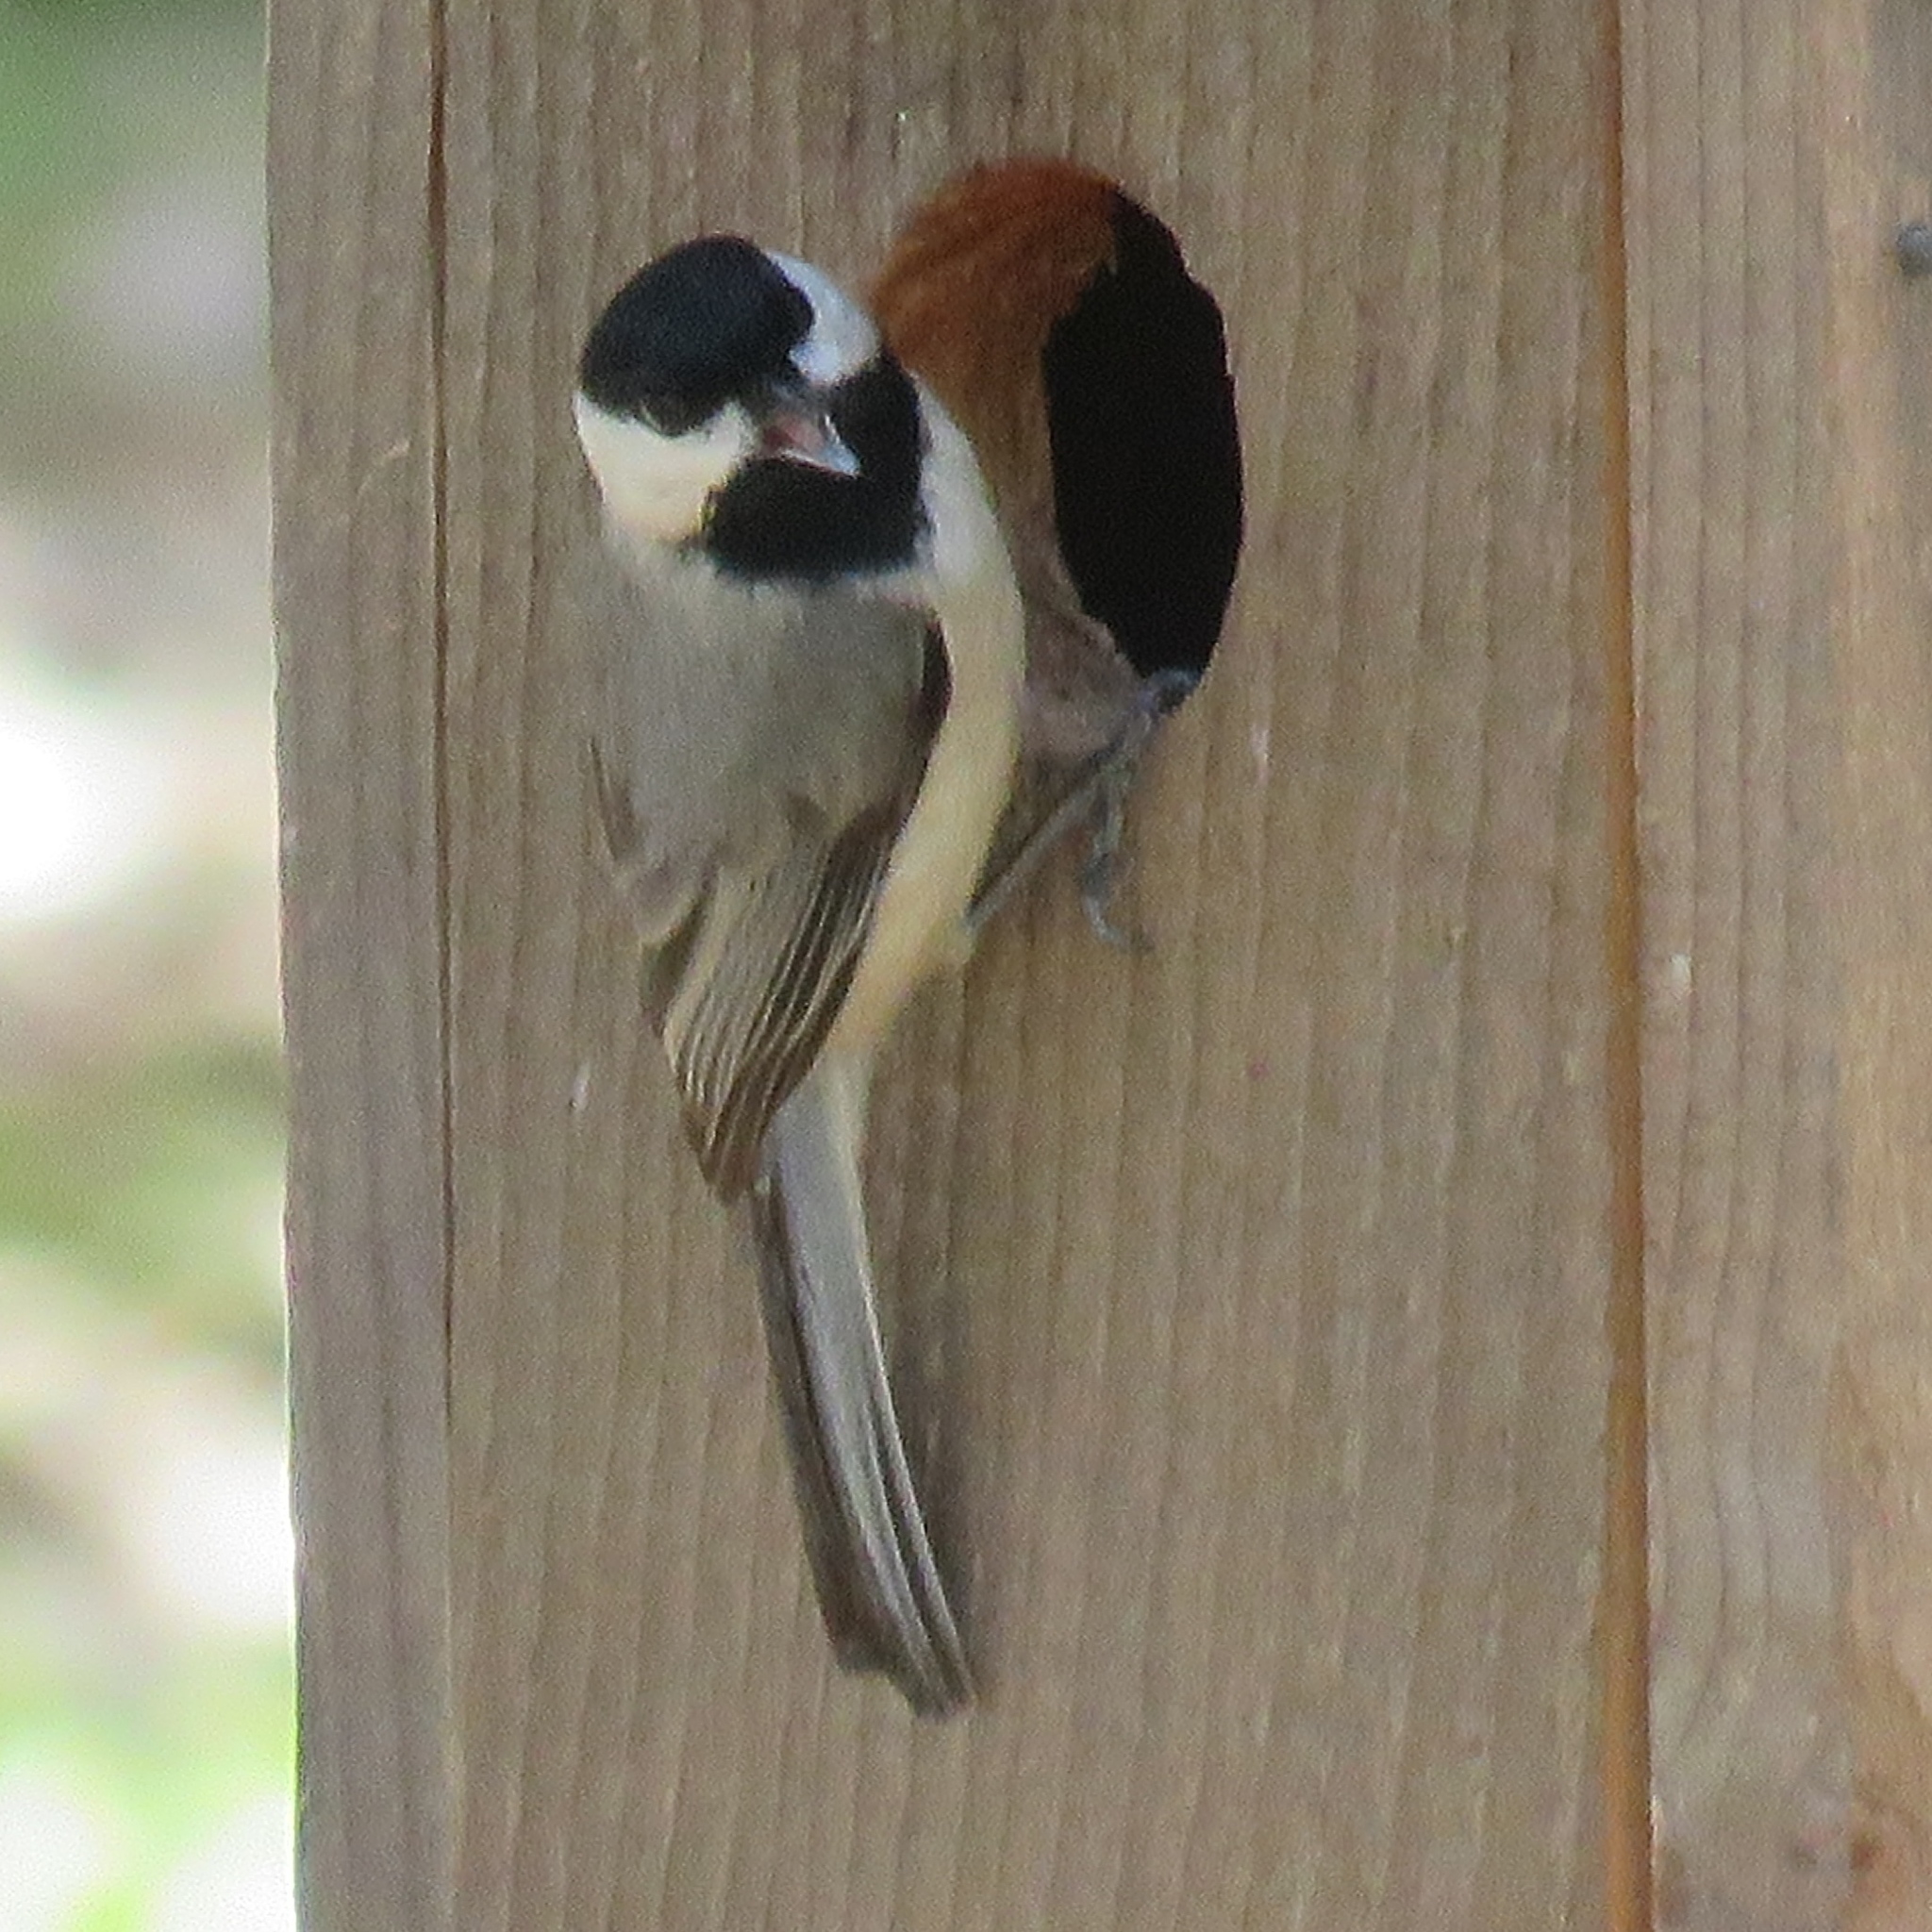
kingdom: Animalia
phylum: Chordata
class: Aves
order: Passeriformes
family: Paridae
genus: Poecile
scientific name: Poecile carolinensis
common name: Carolina chickadee
